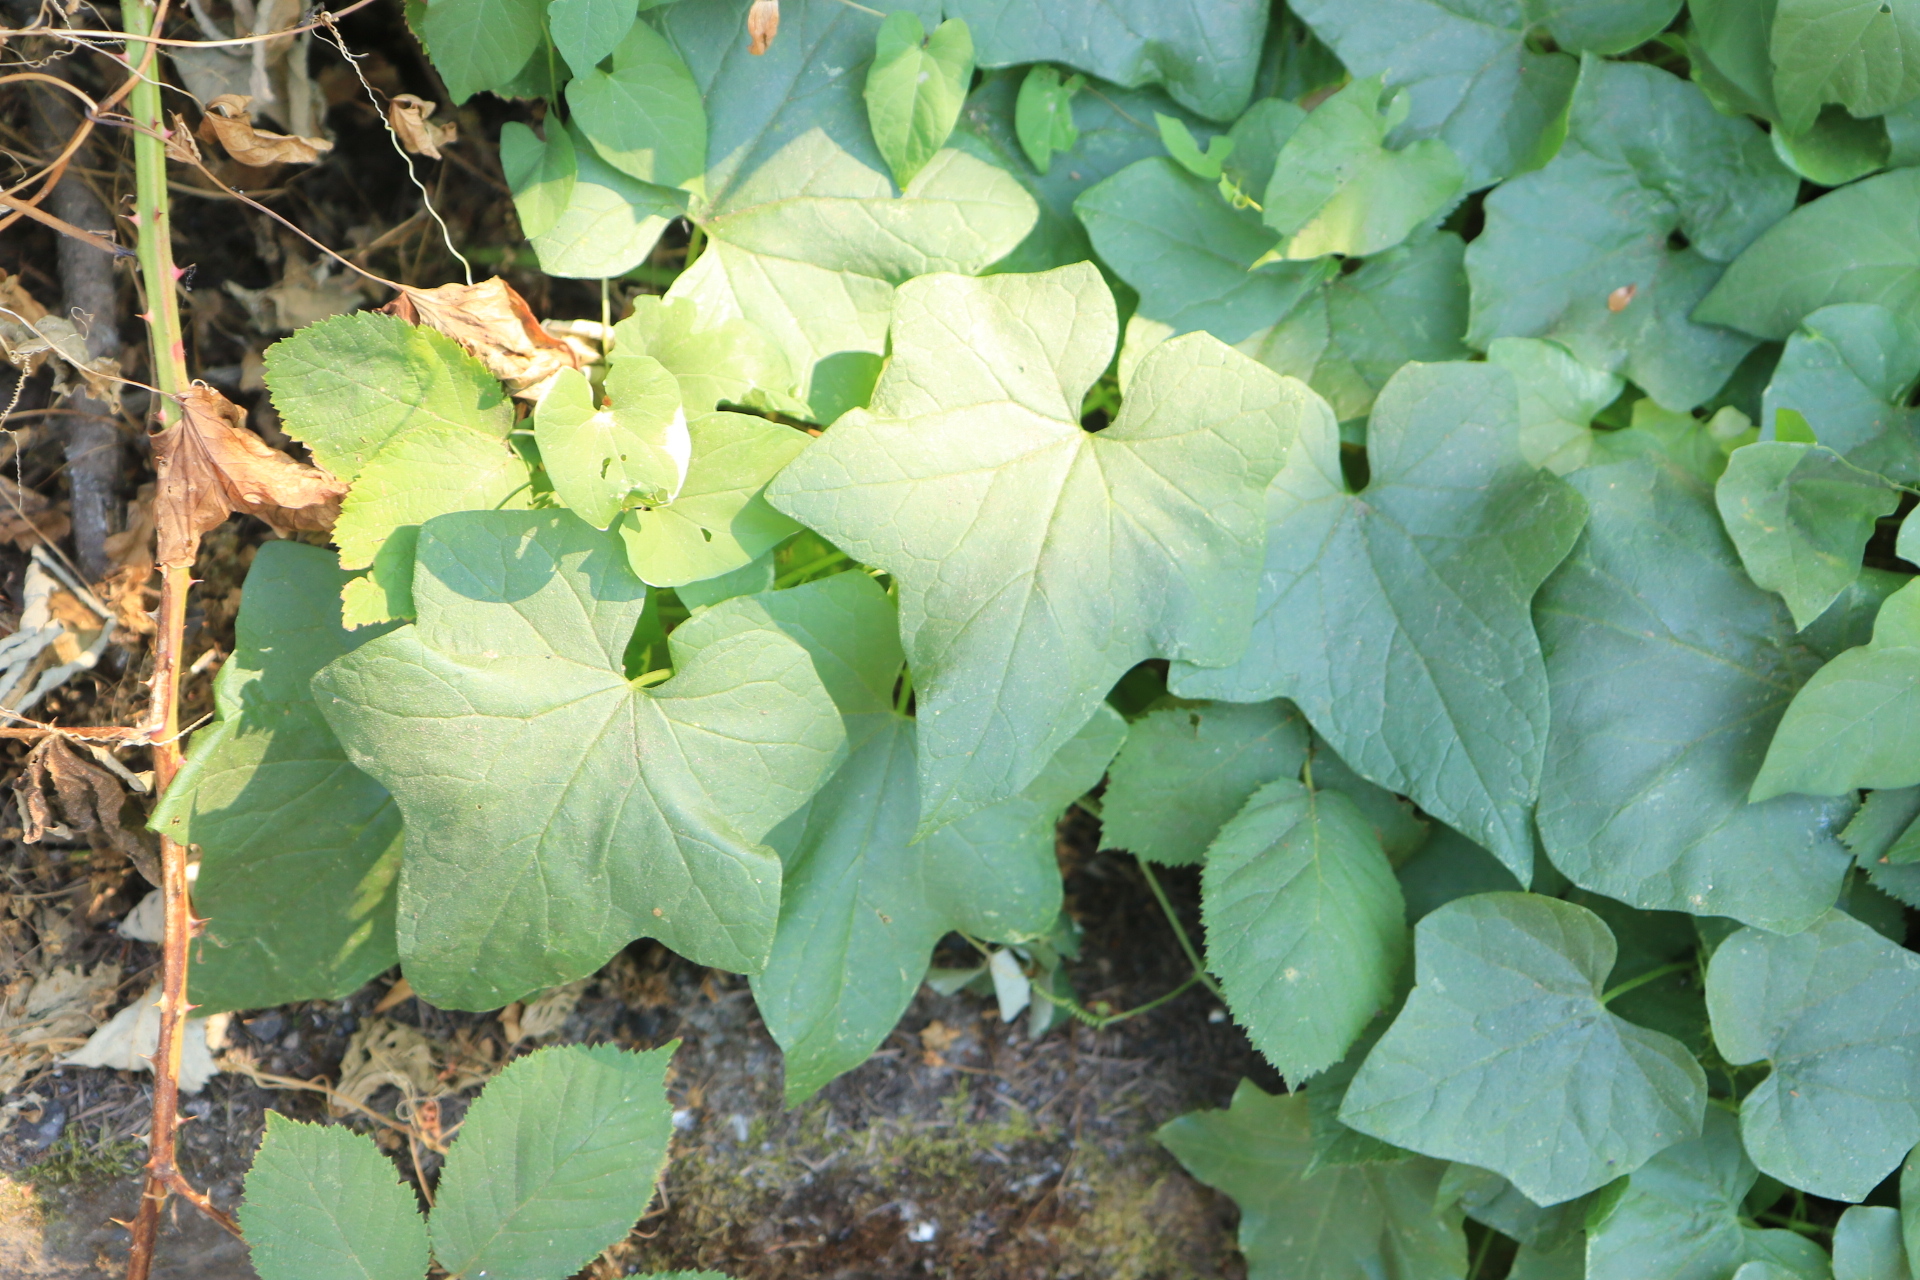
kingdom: Plantae
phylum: Tracheophyta
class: Magnoliopsida
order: Cucurbitales
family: Cucurbitaceae
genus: Marah
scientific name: Marah oregana
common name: Coastal manroot
